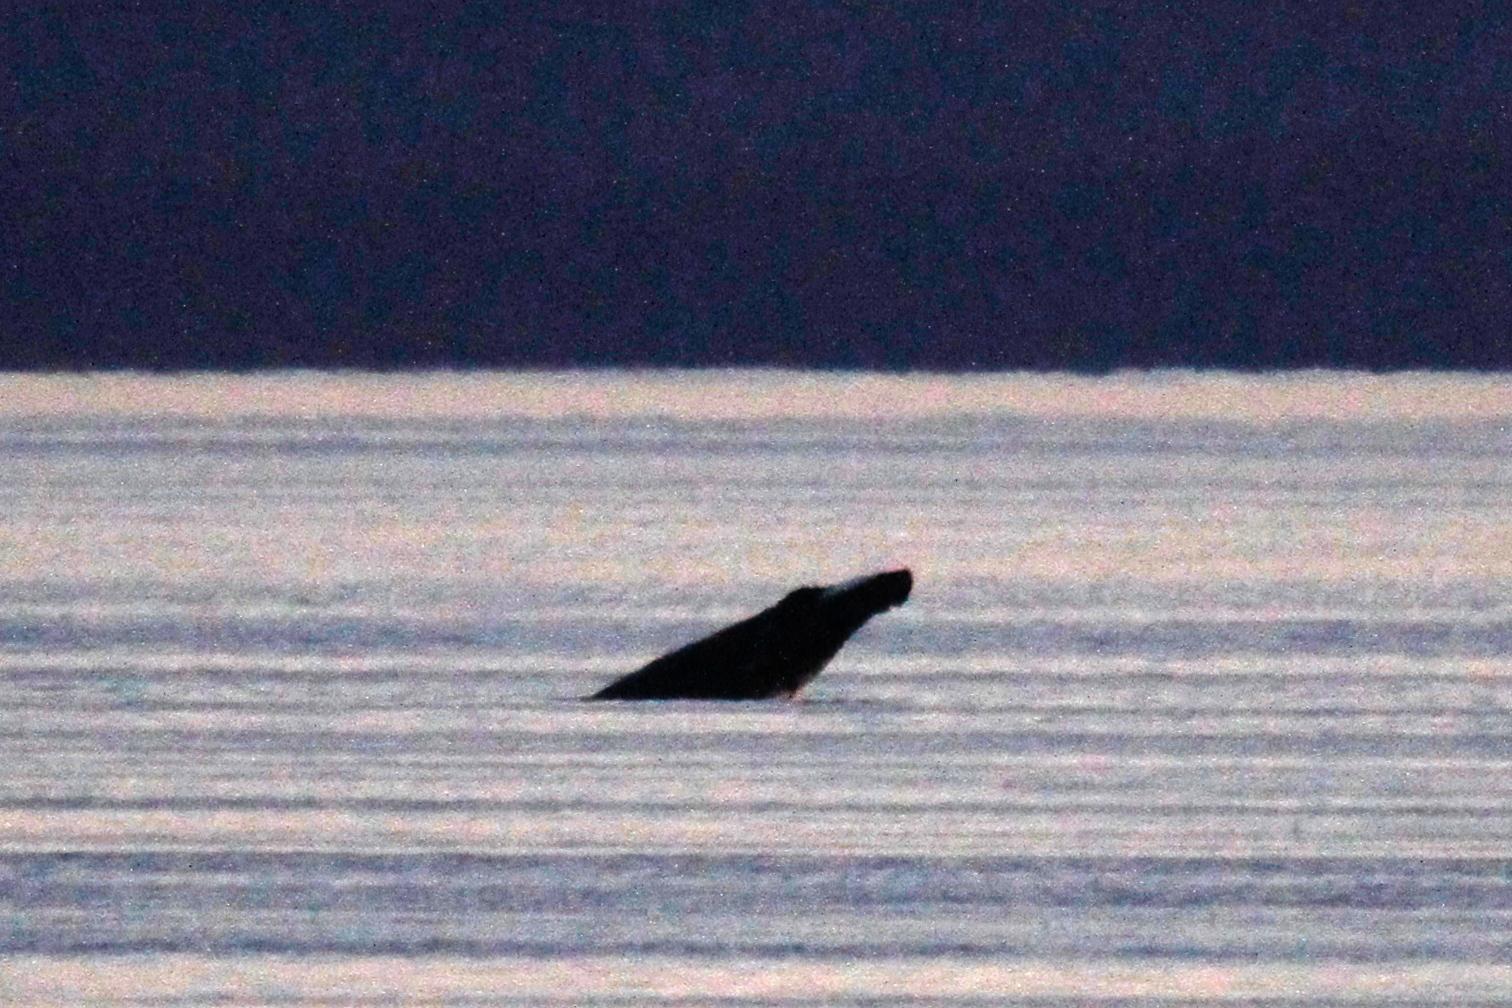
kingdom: Animalia
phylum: Chordata
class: Mammalia
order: Cetacea
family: Balaenopteridae
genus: Megaptera
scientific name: Megaptera novaeangliae
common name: Humpback whale
